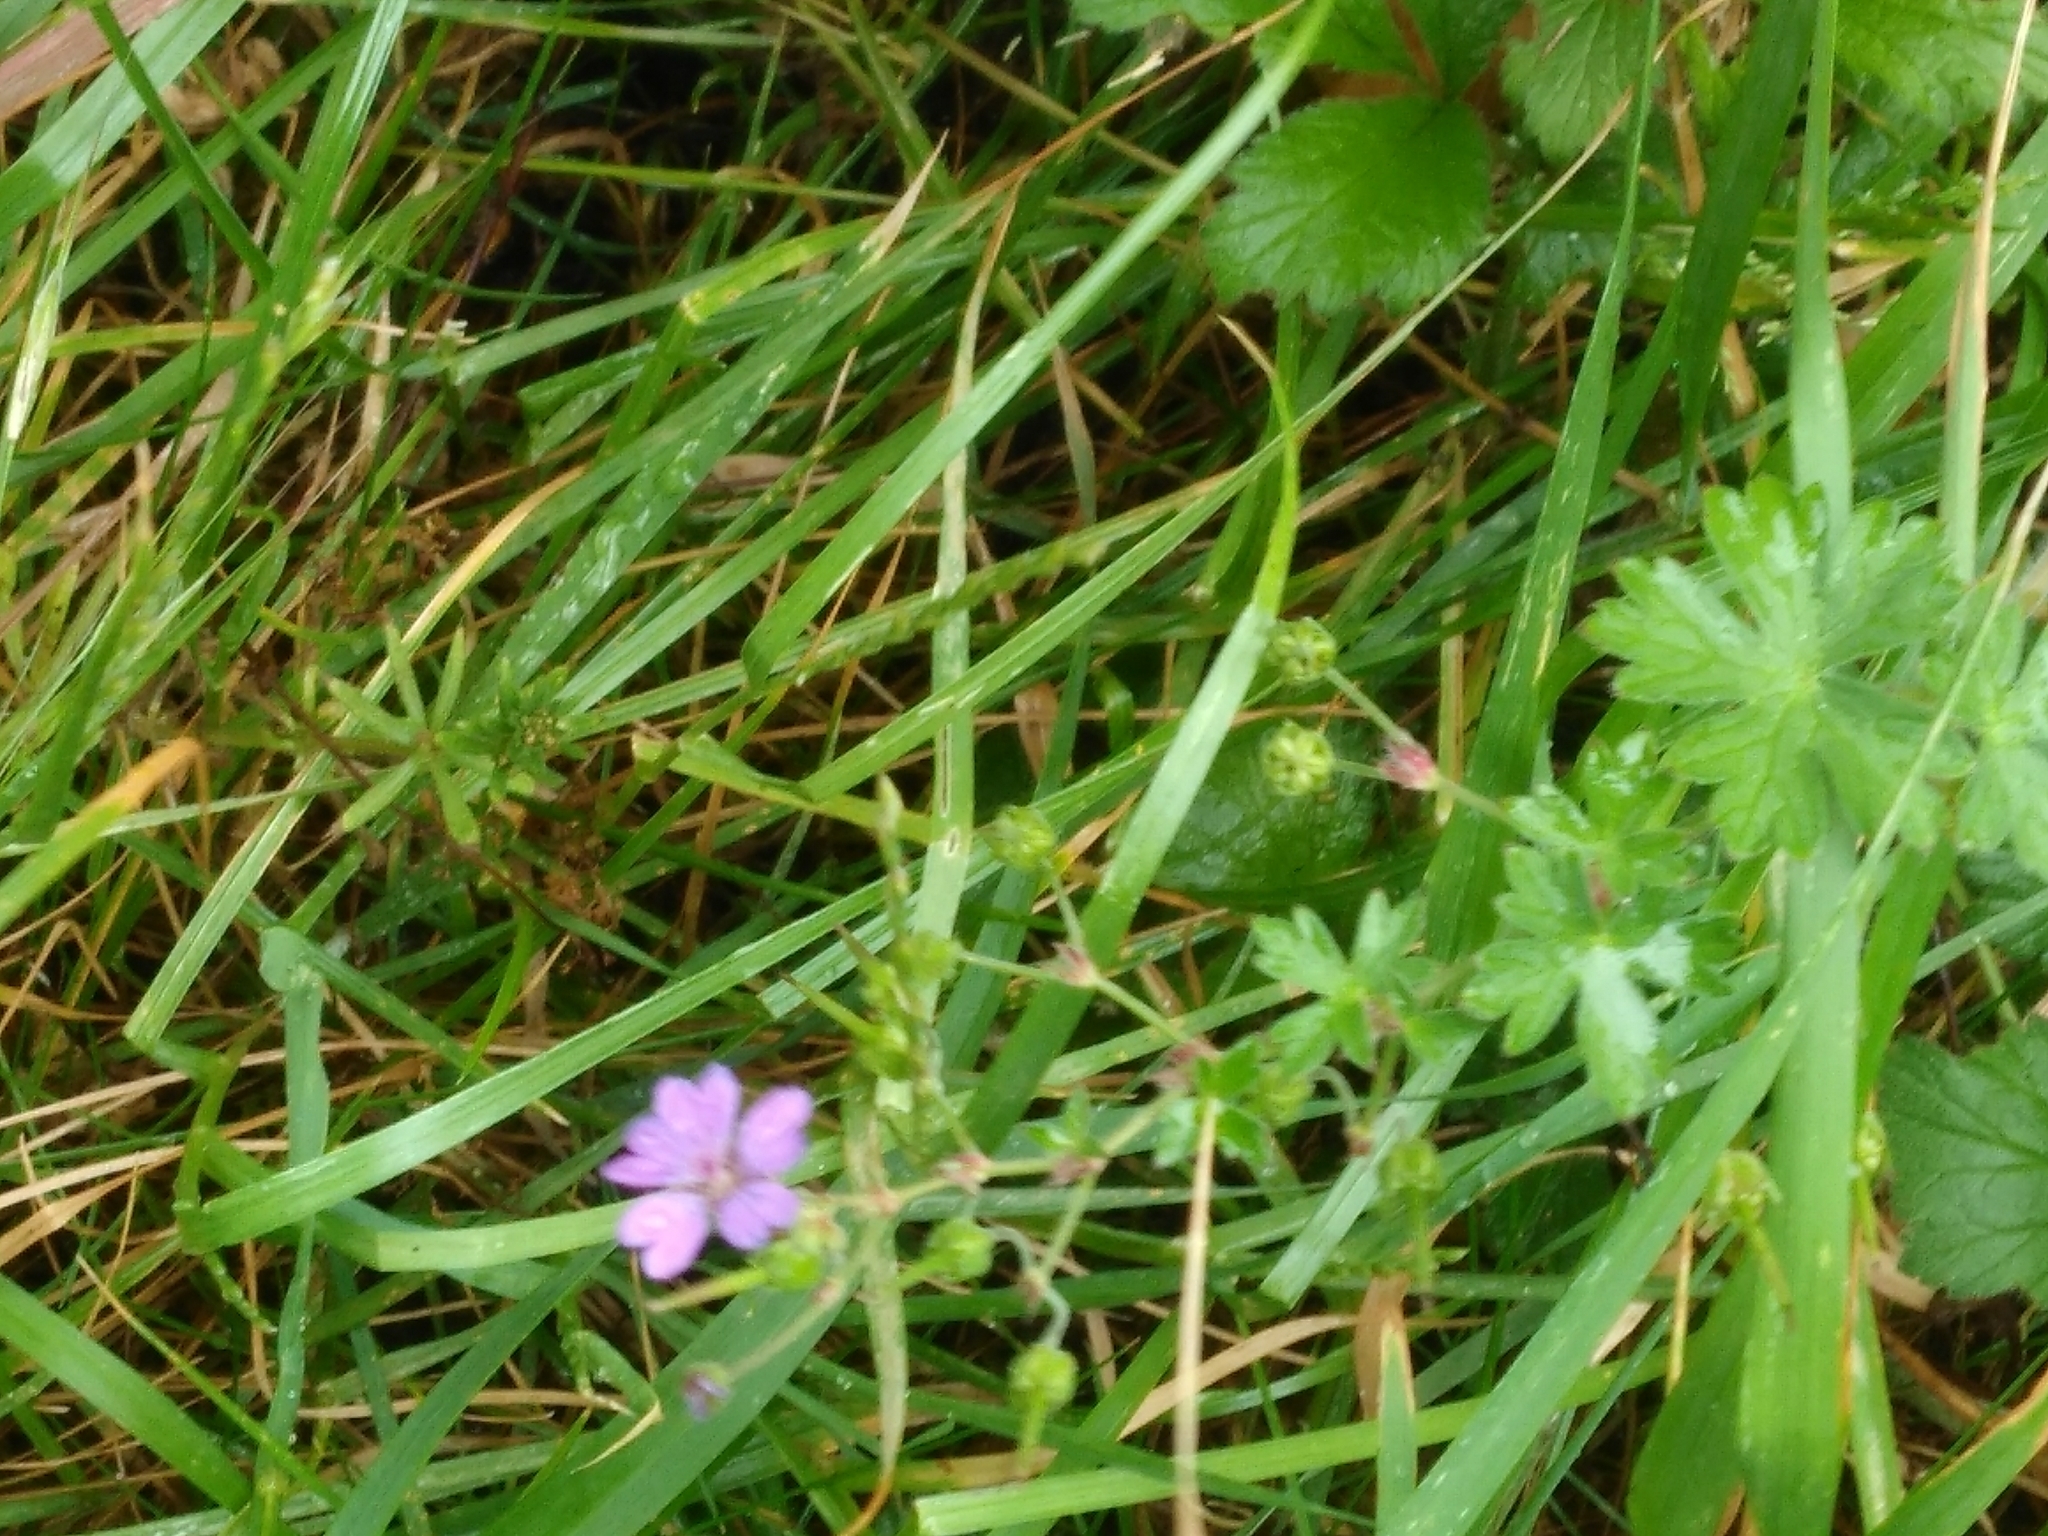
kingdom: Plantae
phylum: Tracheophyta
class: Magnoliopsida
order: Geraniales
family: Geraniaceae
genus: Geranium
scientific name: Geranium pyrenaicum
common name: Hedgerow crane's-bill
